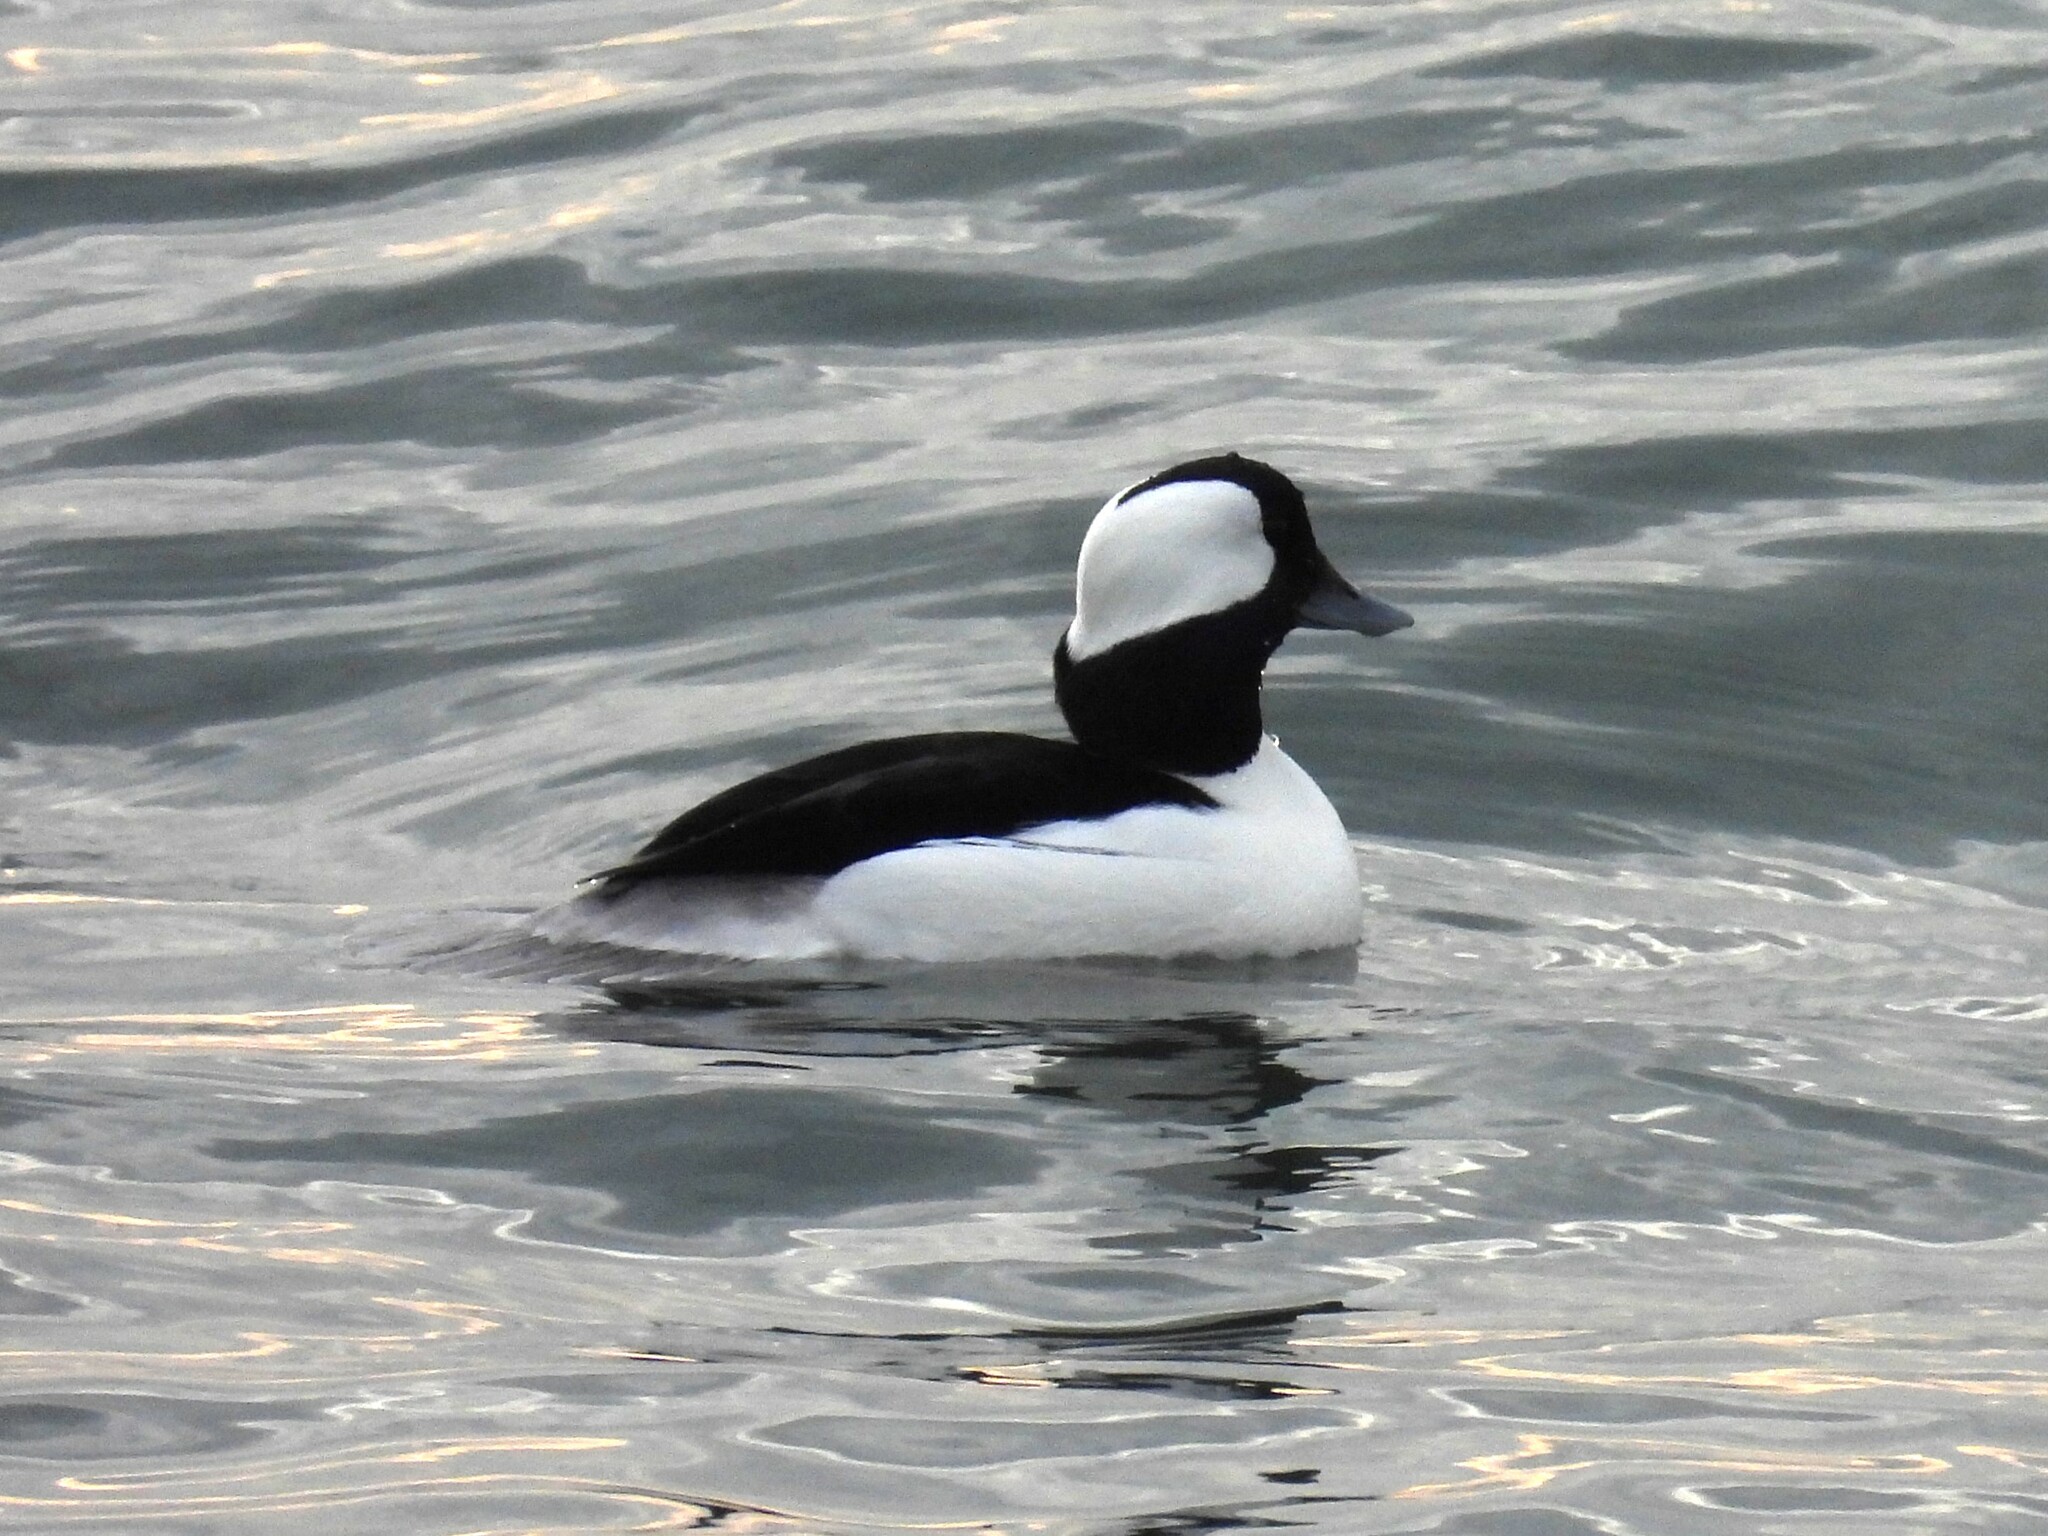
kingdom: Animalia
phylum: Chordata
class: Aves
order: Anseriformes
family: Anatidae
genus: Bucephala
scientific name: Bucephala albeola
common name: Bufflehead
